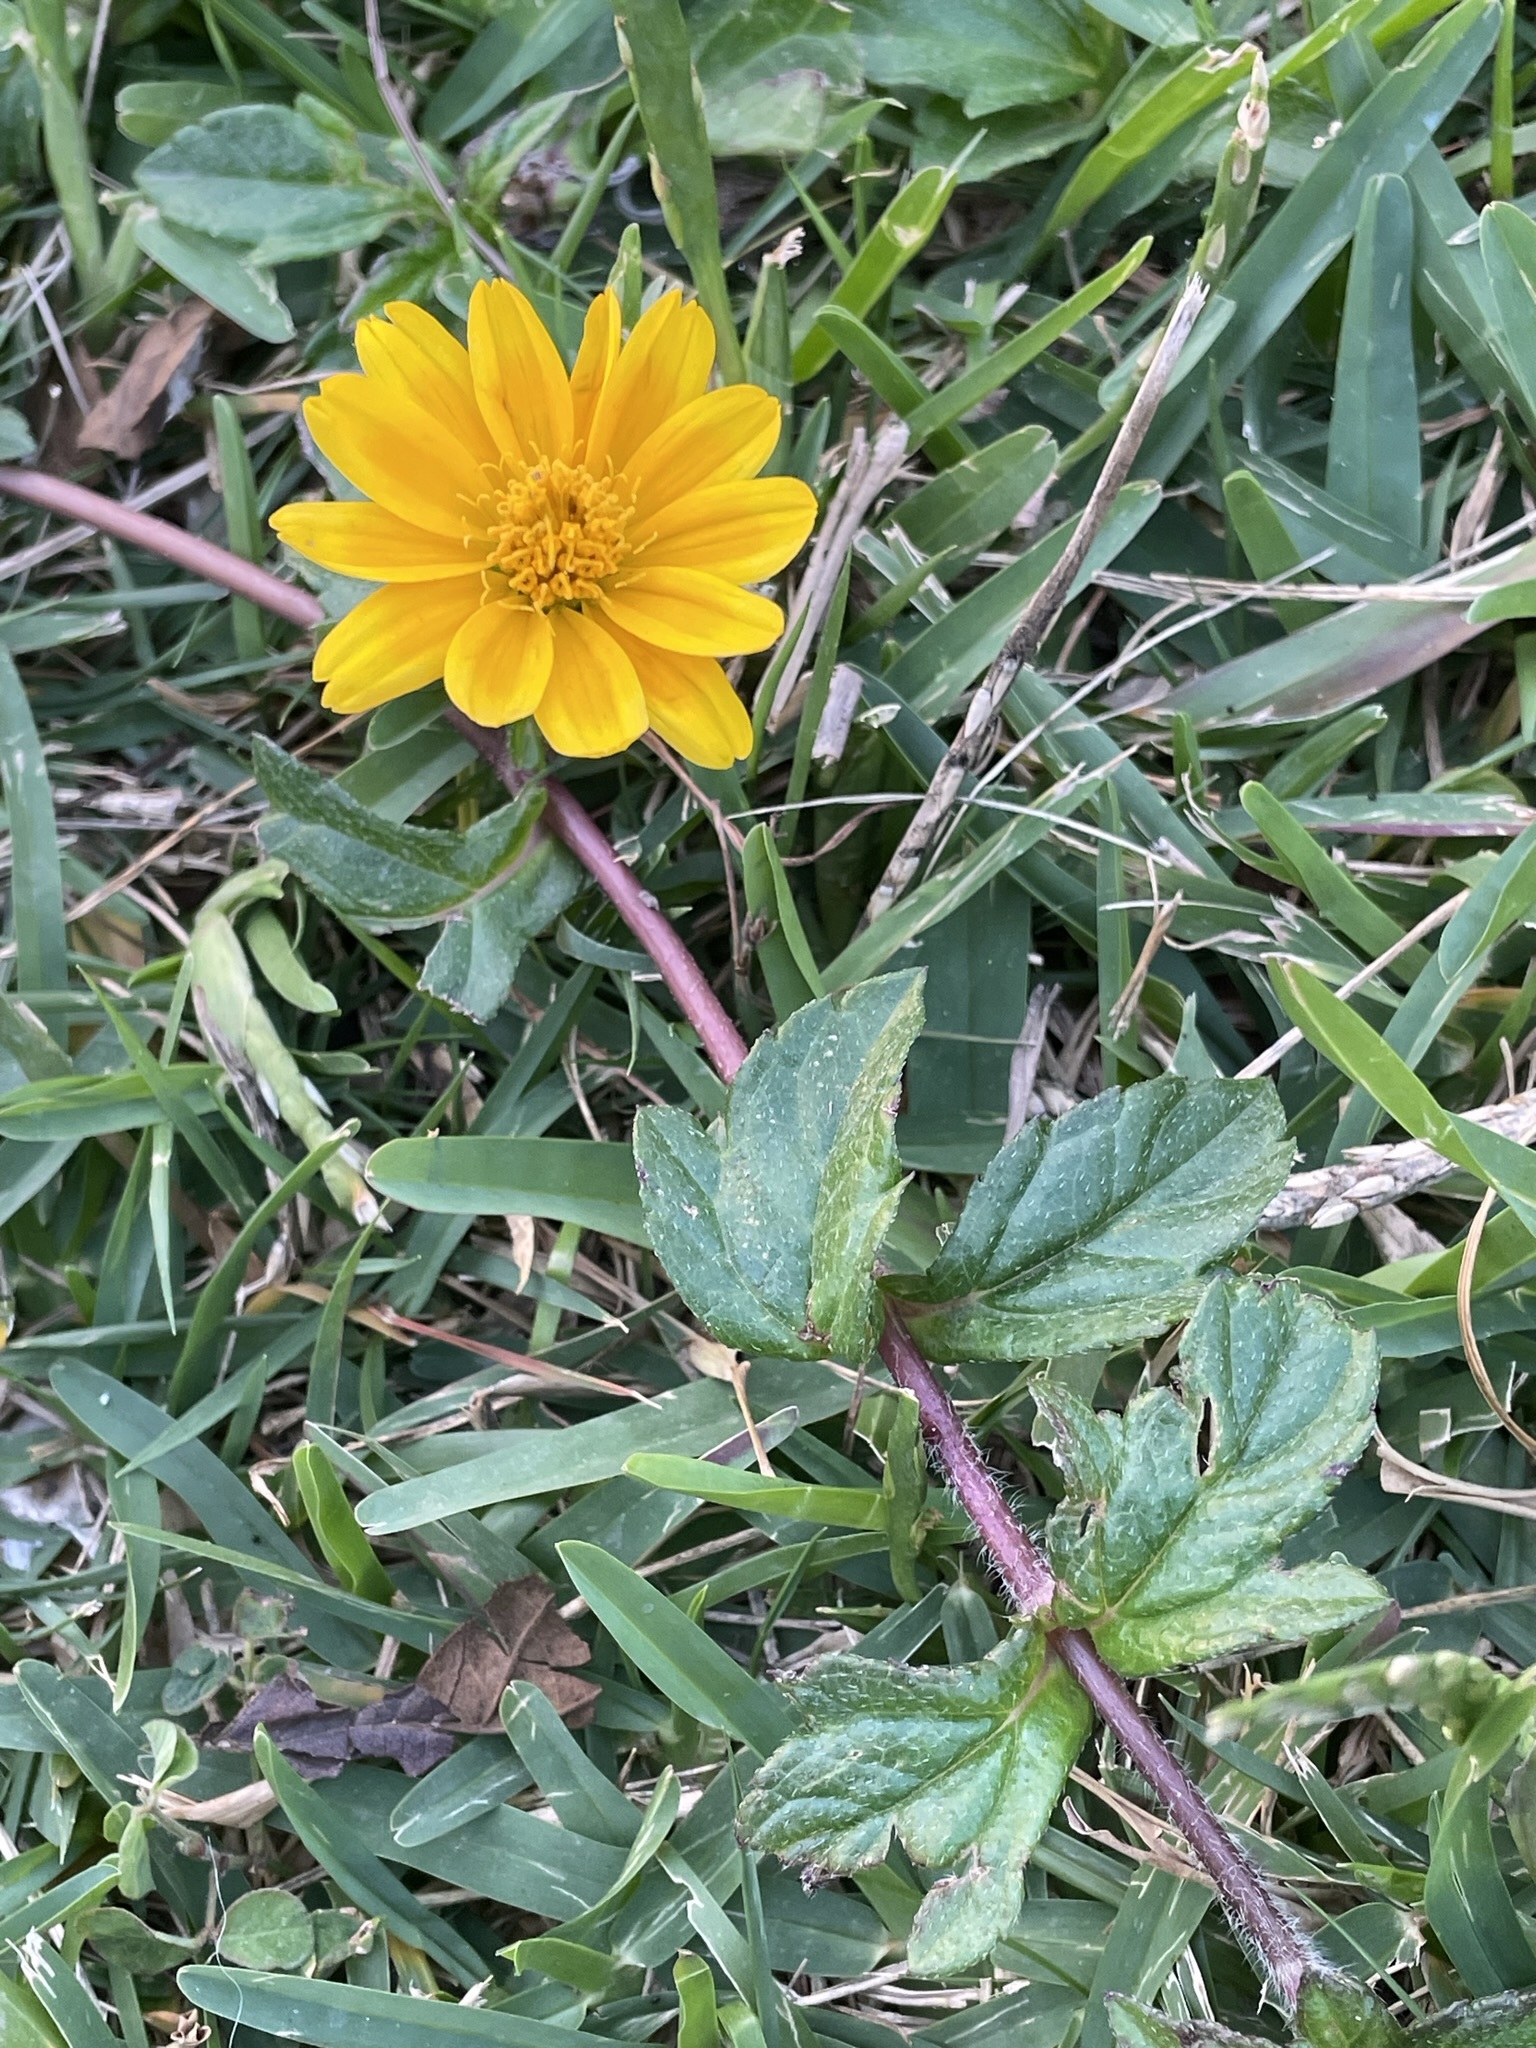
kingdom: Plantae
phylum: Tracheophyta
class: Magnoliopsida
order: Asterales
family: Asteraceae
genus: Sphagneticola
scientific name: Sphagneticola trilobata
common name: Bay biscayne creeping-oxeye
